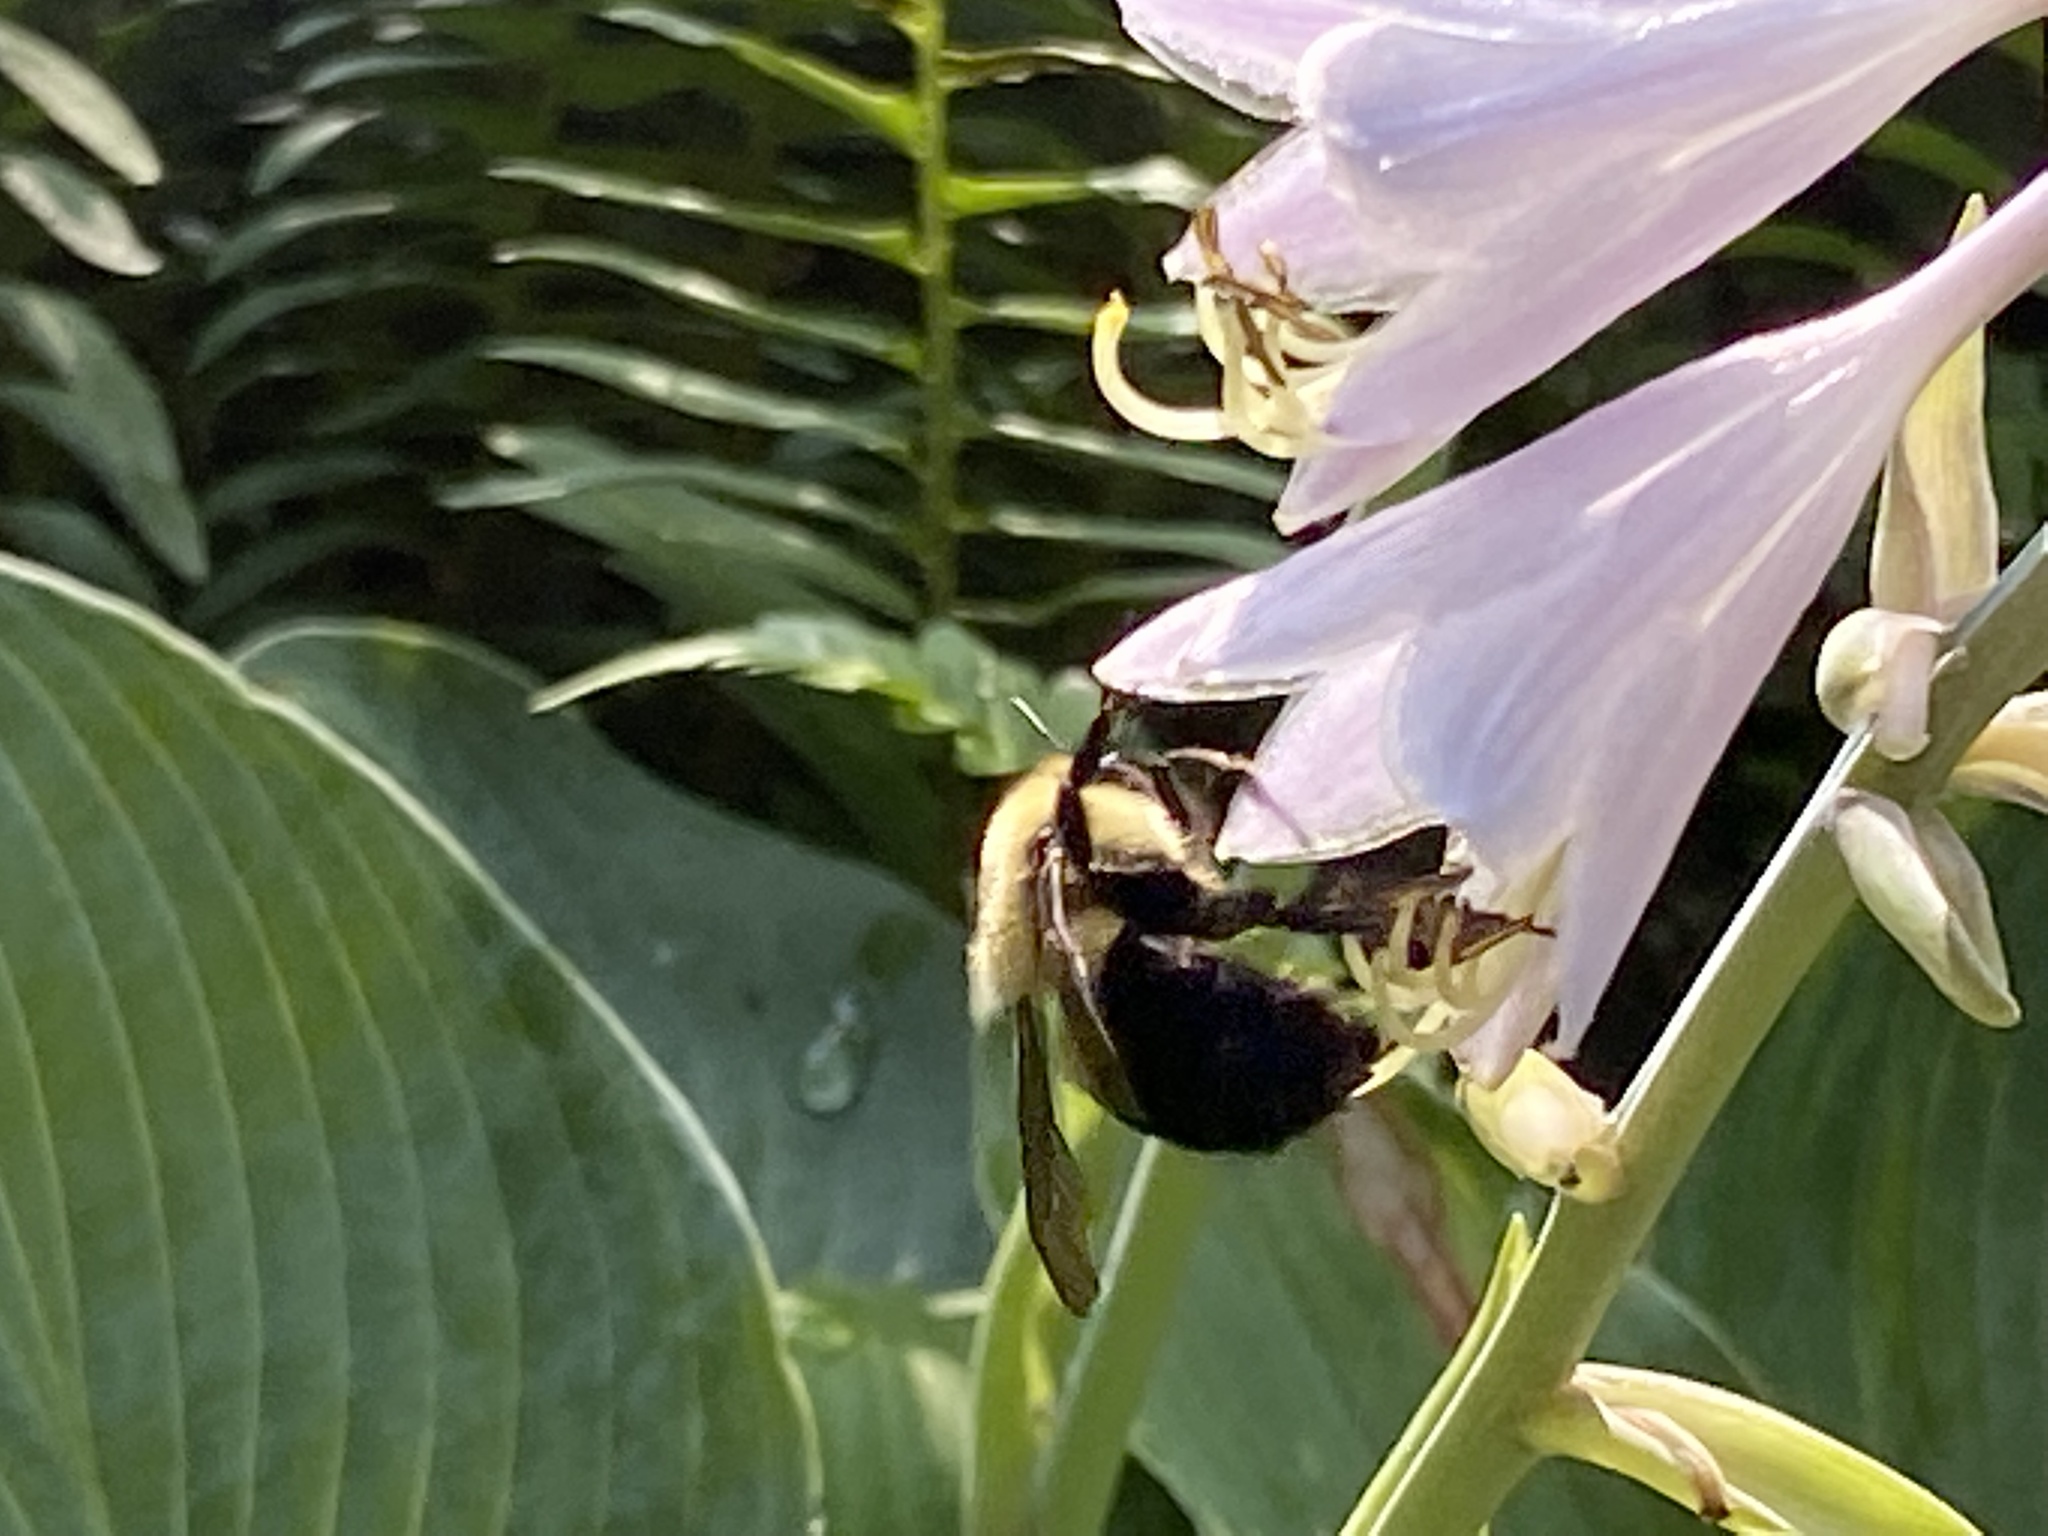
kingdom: Animalia
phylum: Arthropoda
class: Insecta
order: Hymenoptera
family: Apidae
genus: Bombus
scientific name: Bombus
